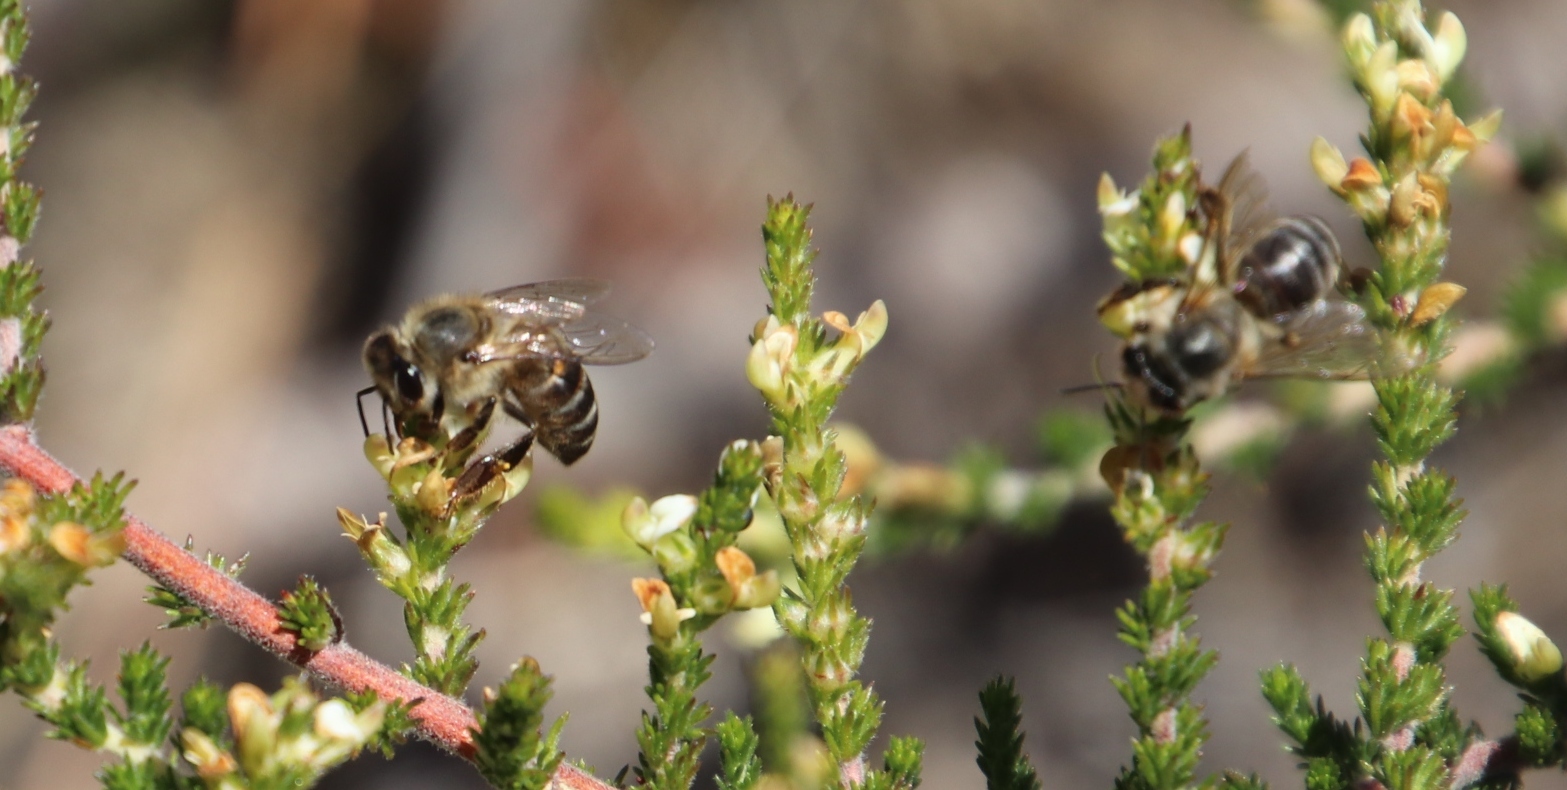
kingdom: Animalia
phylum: Arthropoda
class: Insecta
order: Hymenoptera
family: Apidae
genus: Apis
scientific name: Apis mellifera
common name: Honey bee
